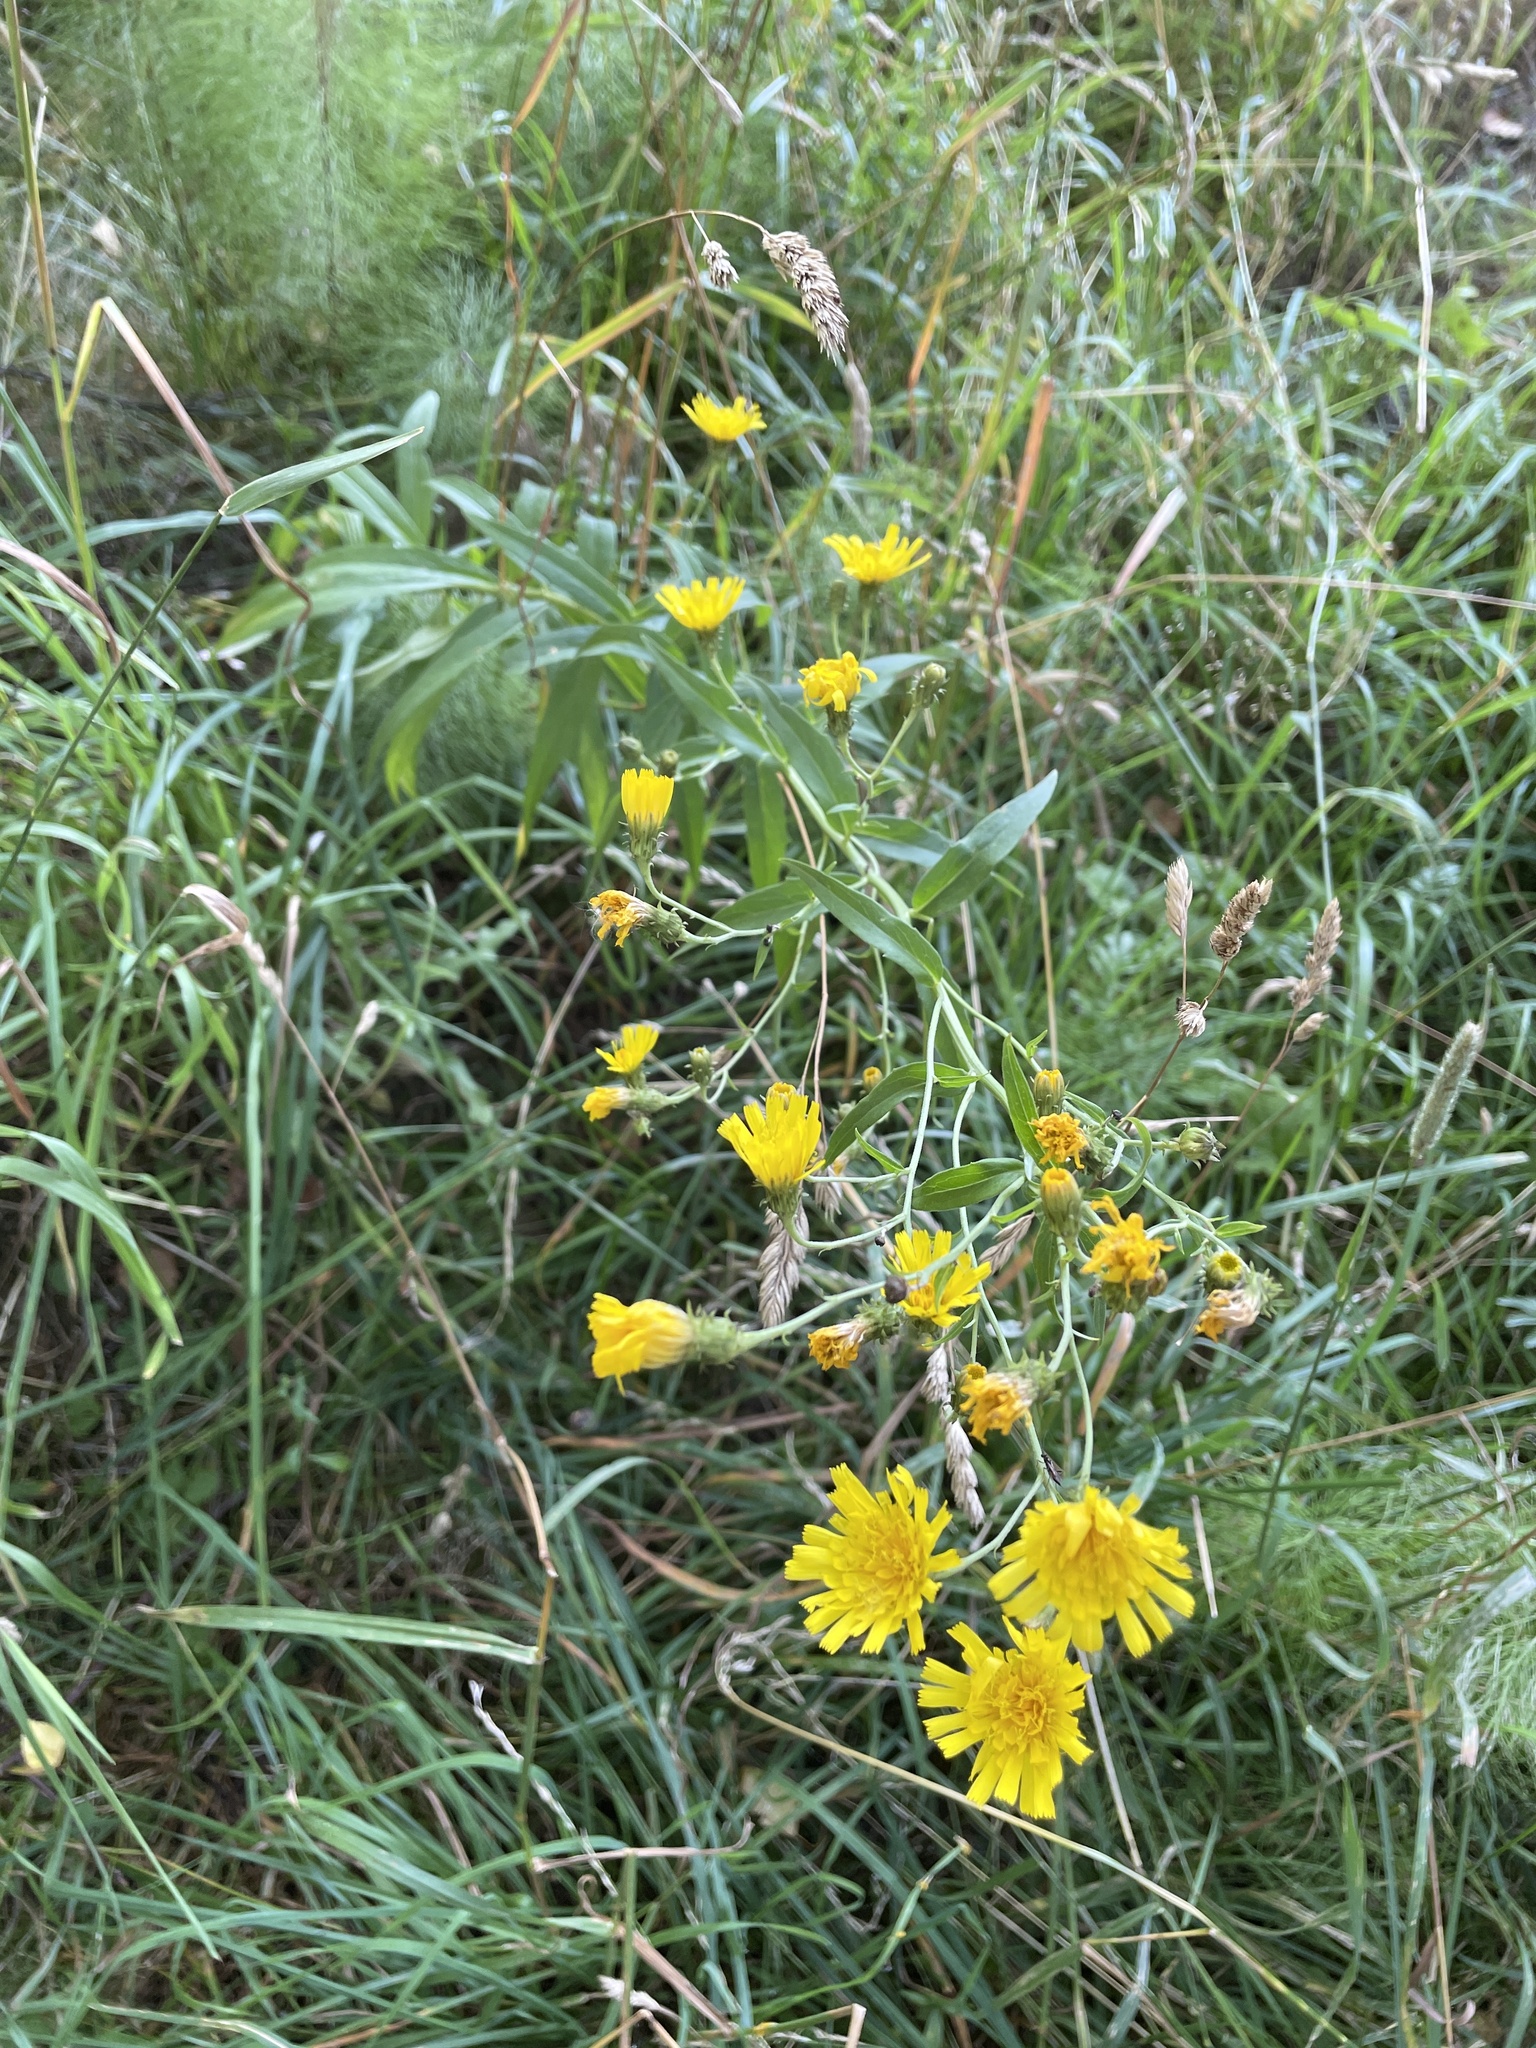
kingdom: Plantae
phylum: Tracheophyta
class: Magnoliopsida
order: Asterales
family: Asteraceae
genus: Hieracium
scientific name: Hieracium umbellatum
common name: Northern hawkweed
